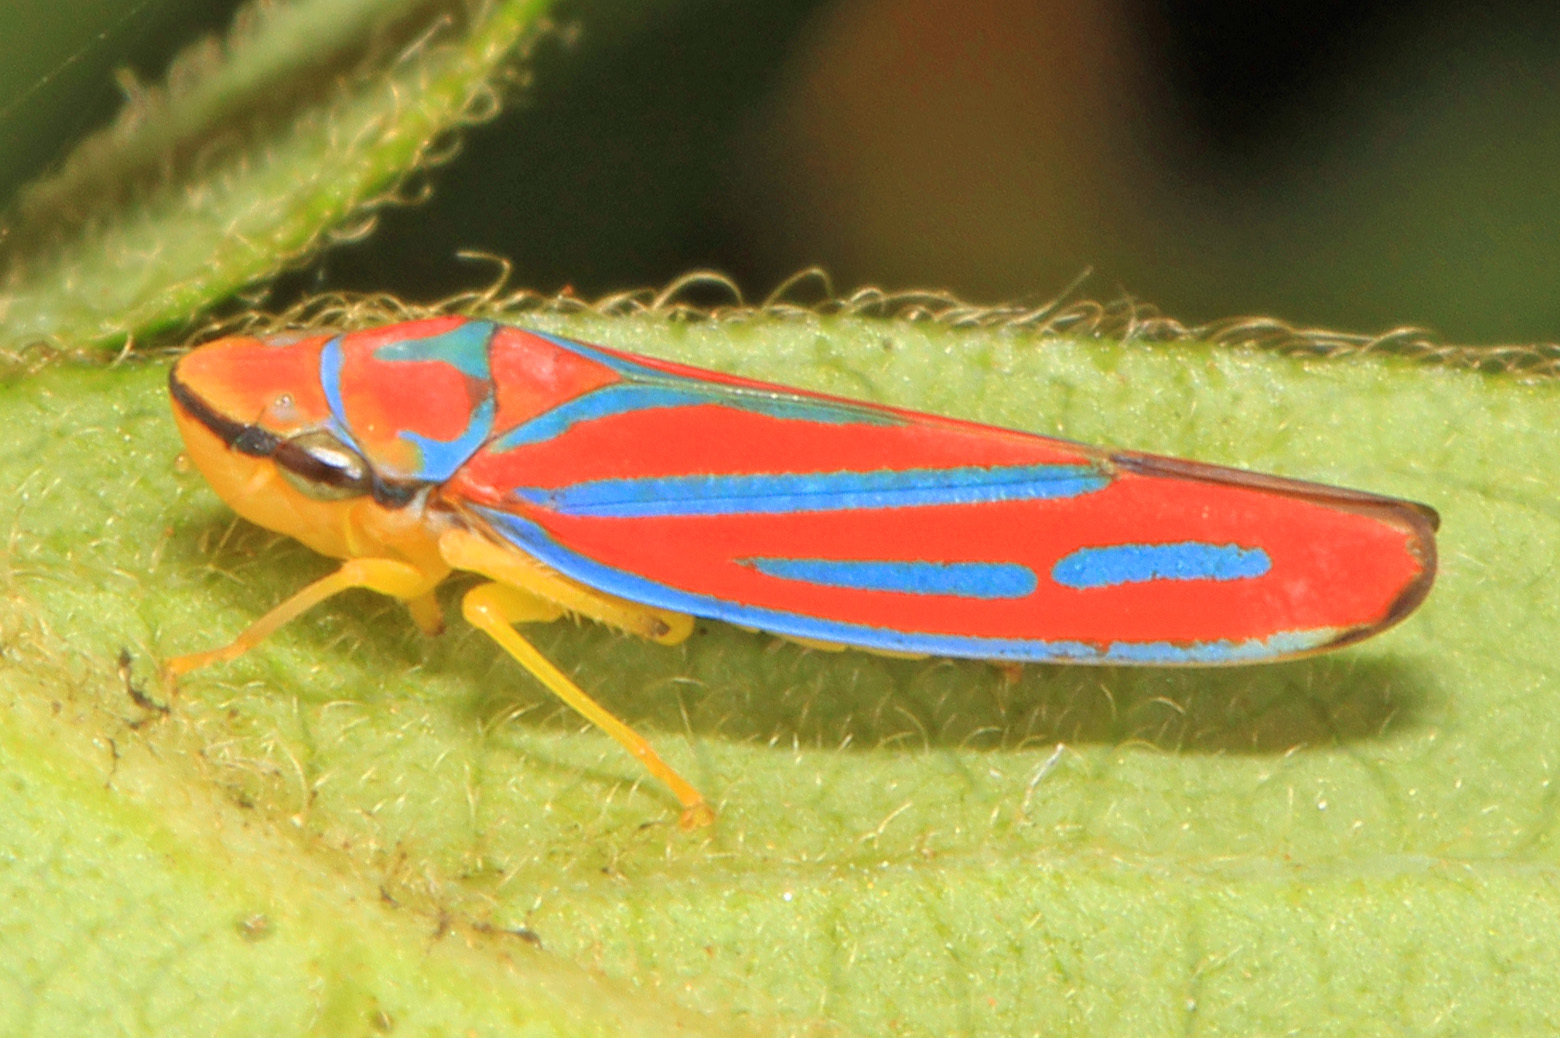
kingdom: Animalia
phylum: Arthropoda
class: Insecta
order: Hemiptera
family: Cicadellidae
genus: Graphocephala
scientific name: Graphocephala coccinea
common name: Candy-striped leafhopper
